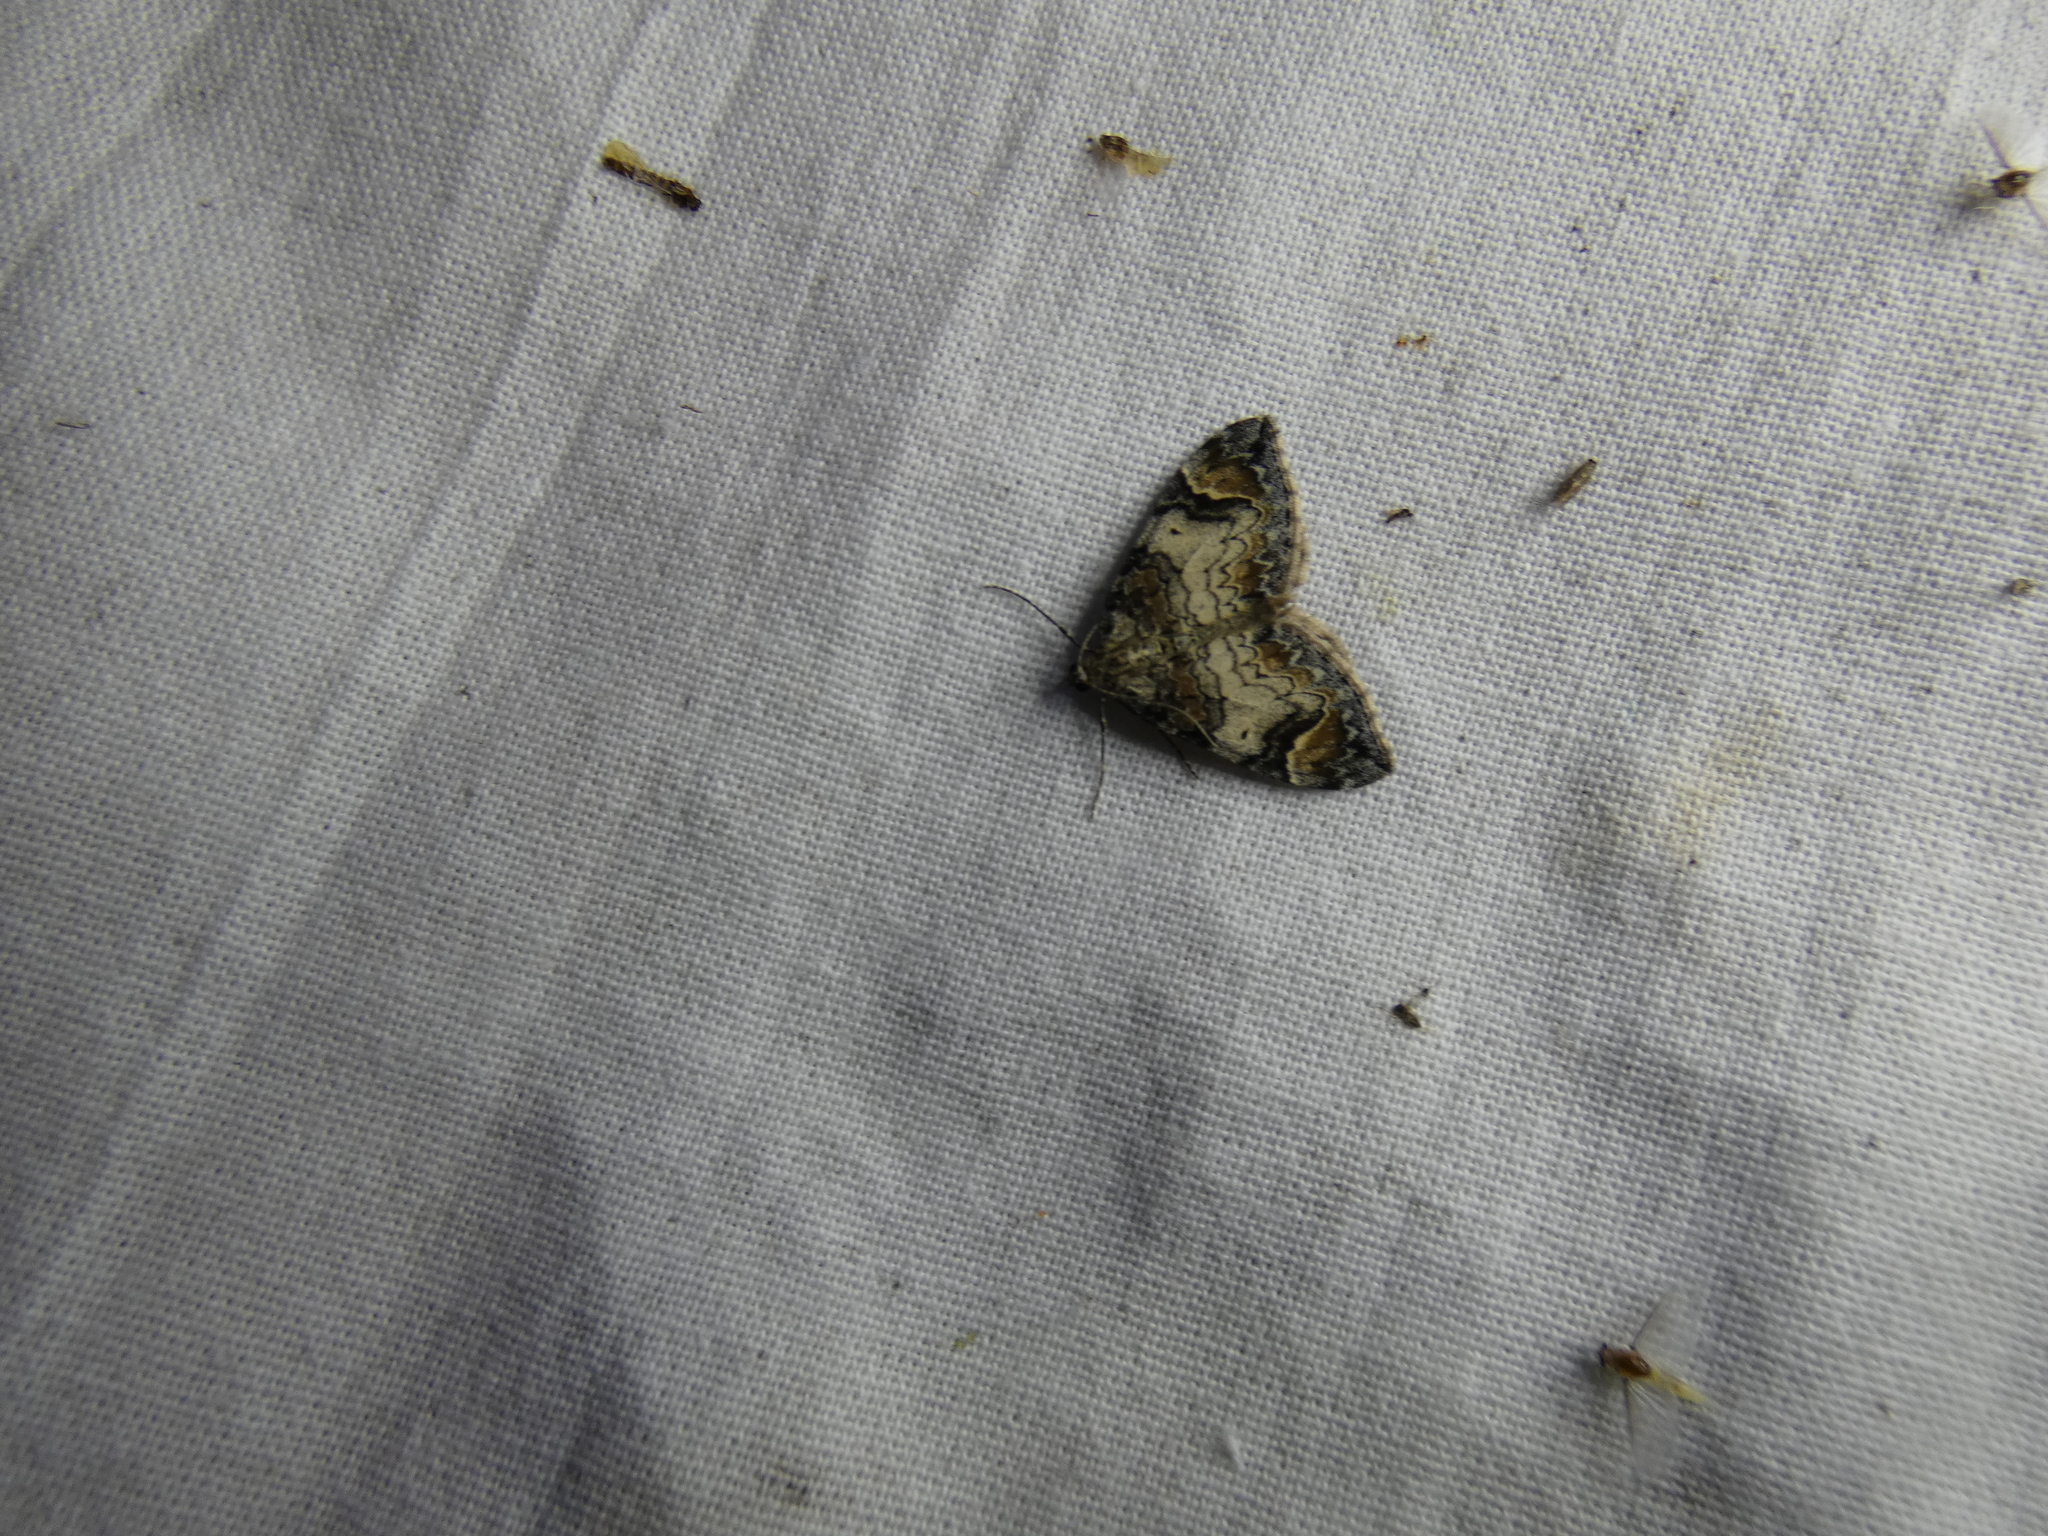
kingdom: Animalia
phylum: Arthropoda
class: Insecta
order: Lepidoptera
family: Geometridae
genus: Dysstroma
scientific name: Dysstroma citrata
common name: Dark marbled carpet
